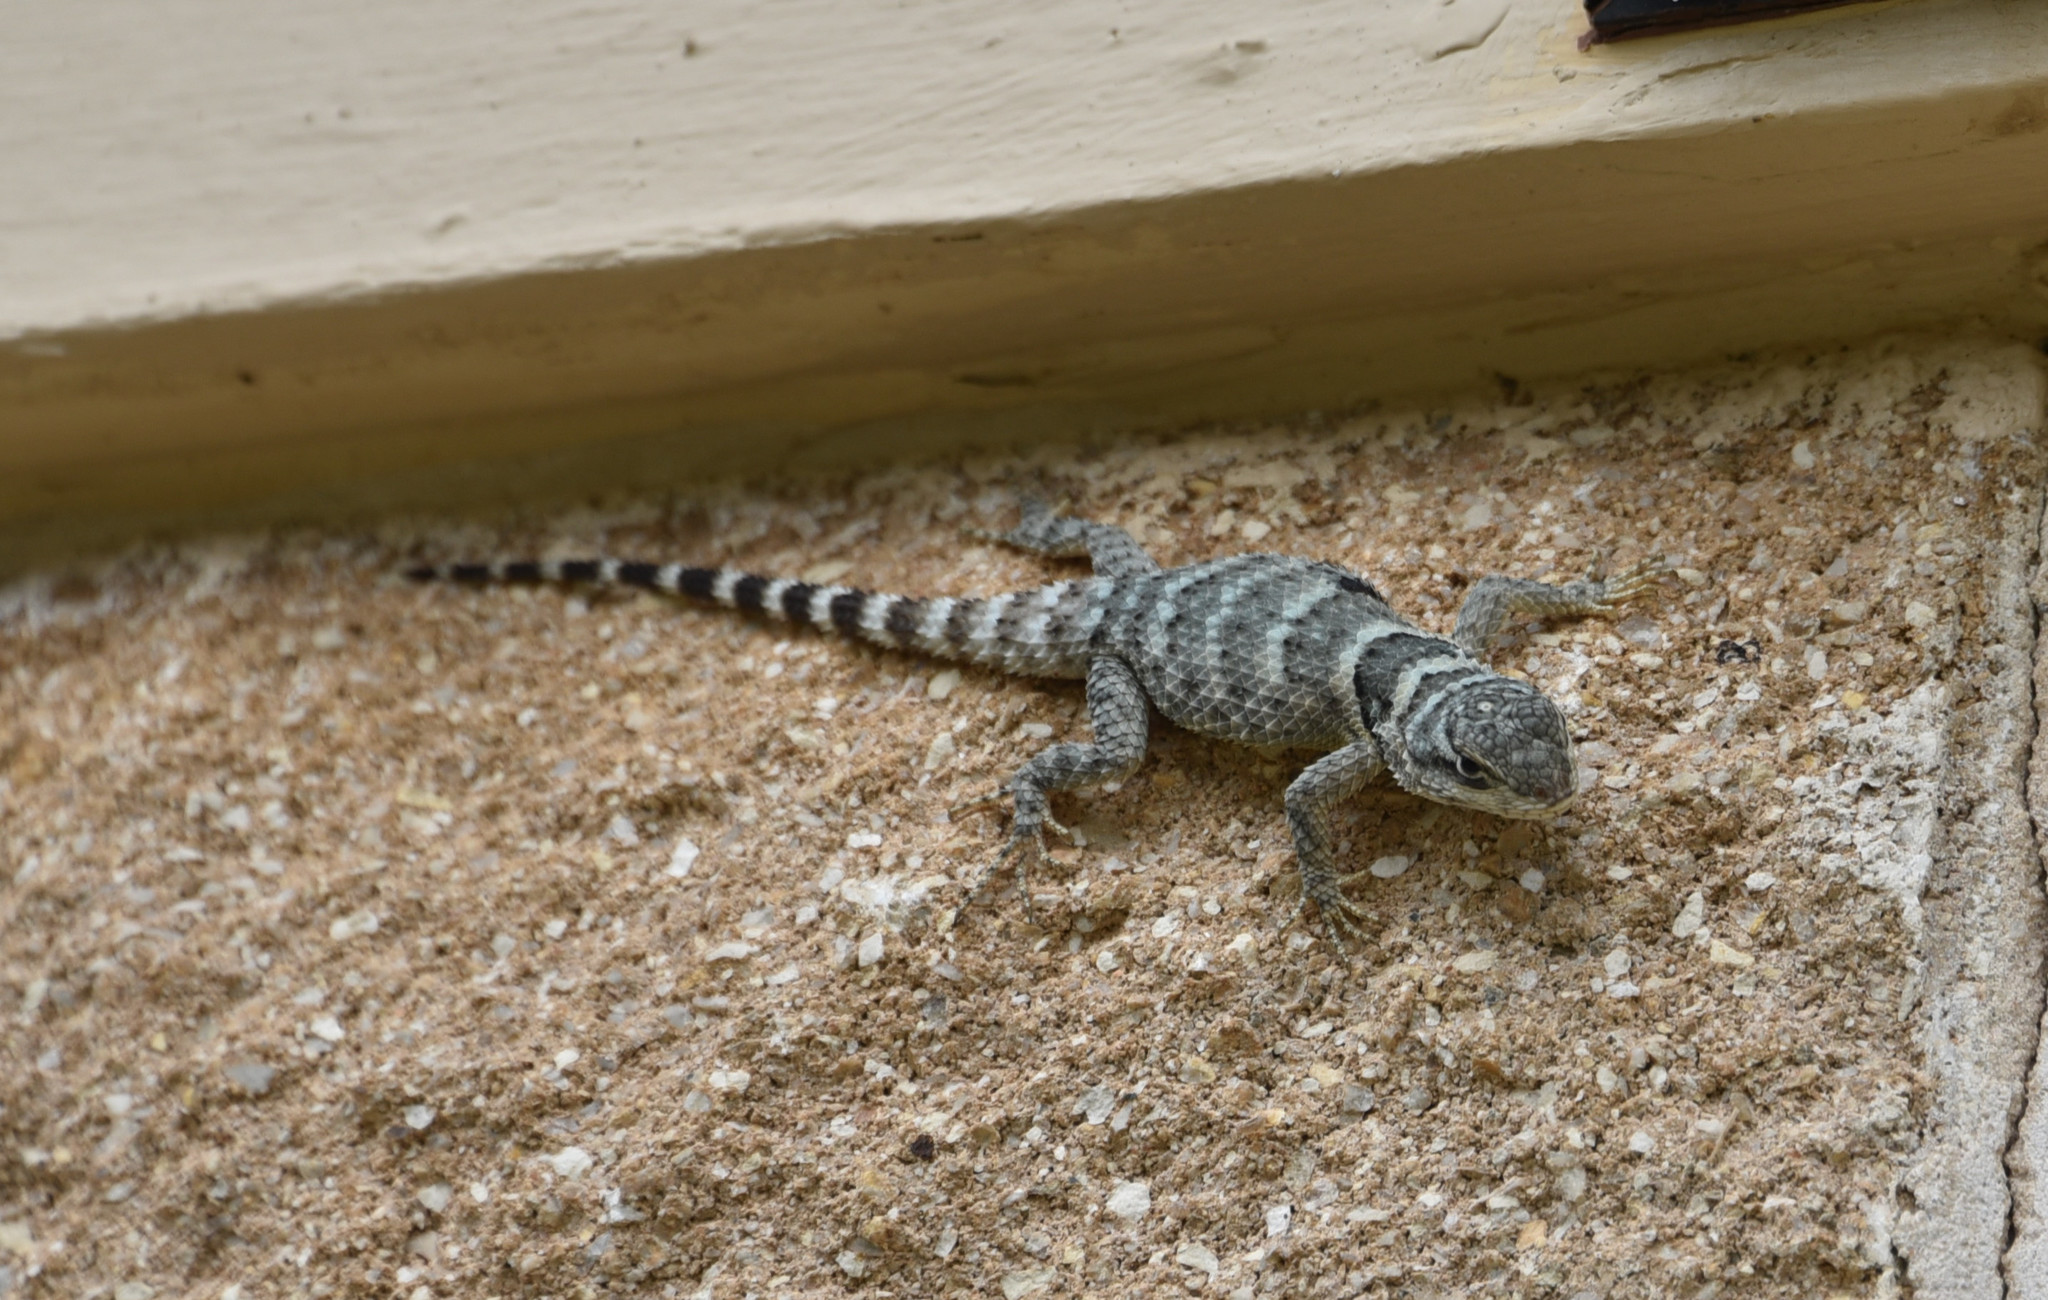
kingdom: Animalia
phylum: Chordata
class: Squamata
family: Phrynosomatidae
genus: Sceloporus
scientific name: Sceloporus poinsettii
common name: Crevice spiny lizard
